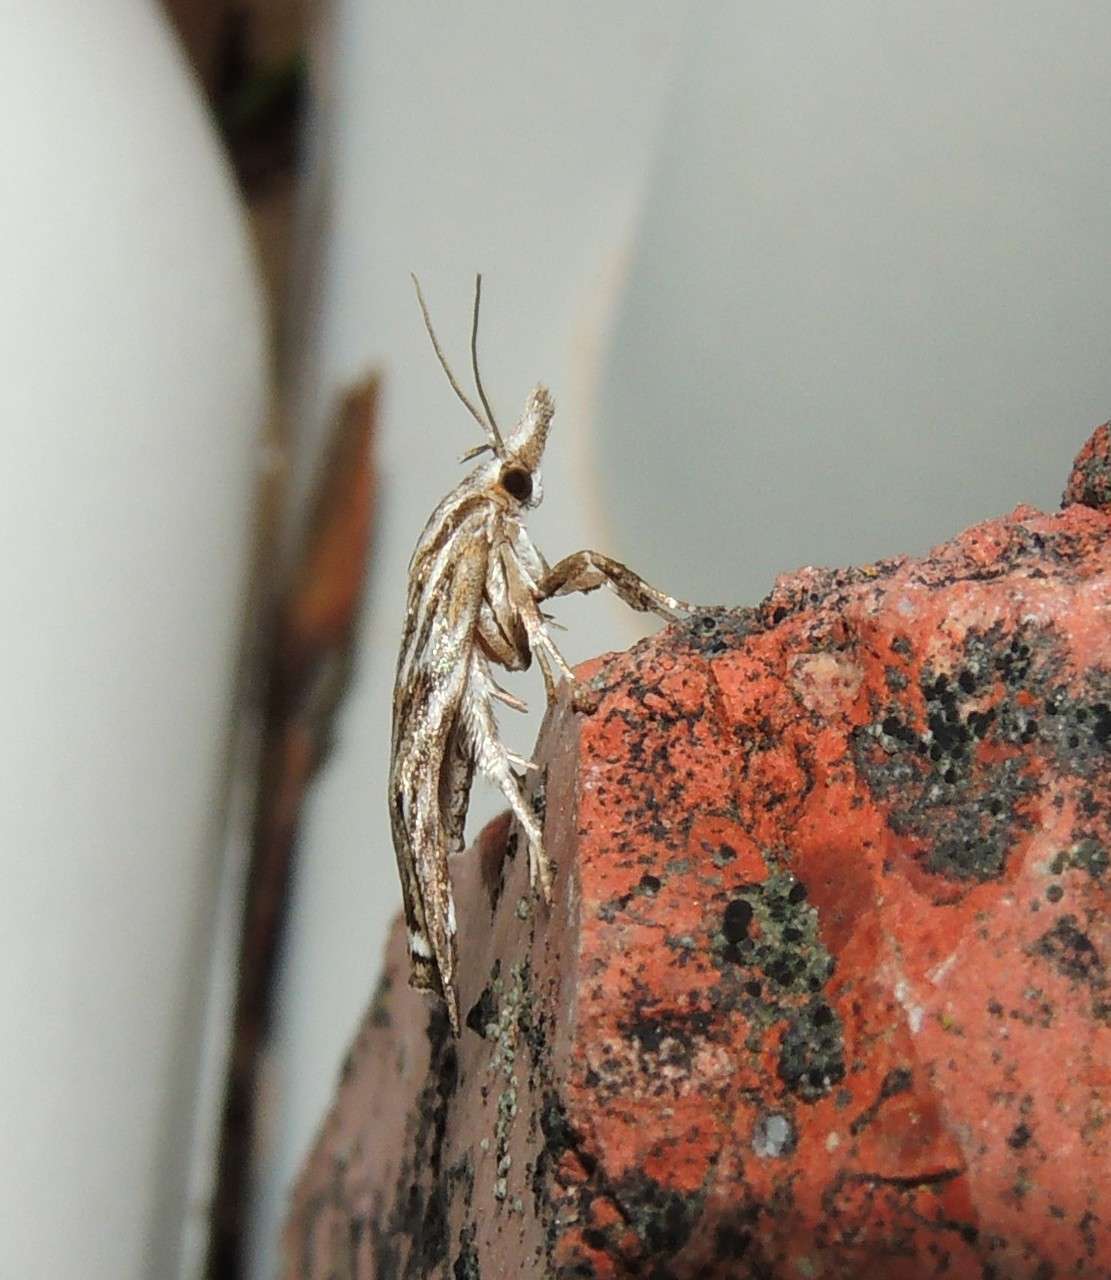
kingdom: Animalia
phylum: Arthropoda
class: Insecta
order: Lepidoptera
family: Oecophoridae
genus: Tortricopsis
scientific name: Tortricopsis aulacois
